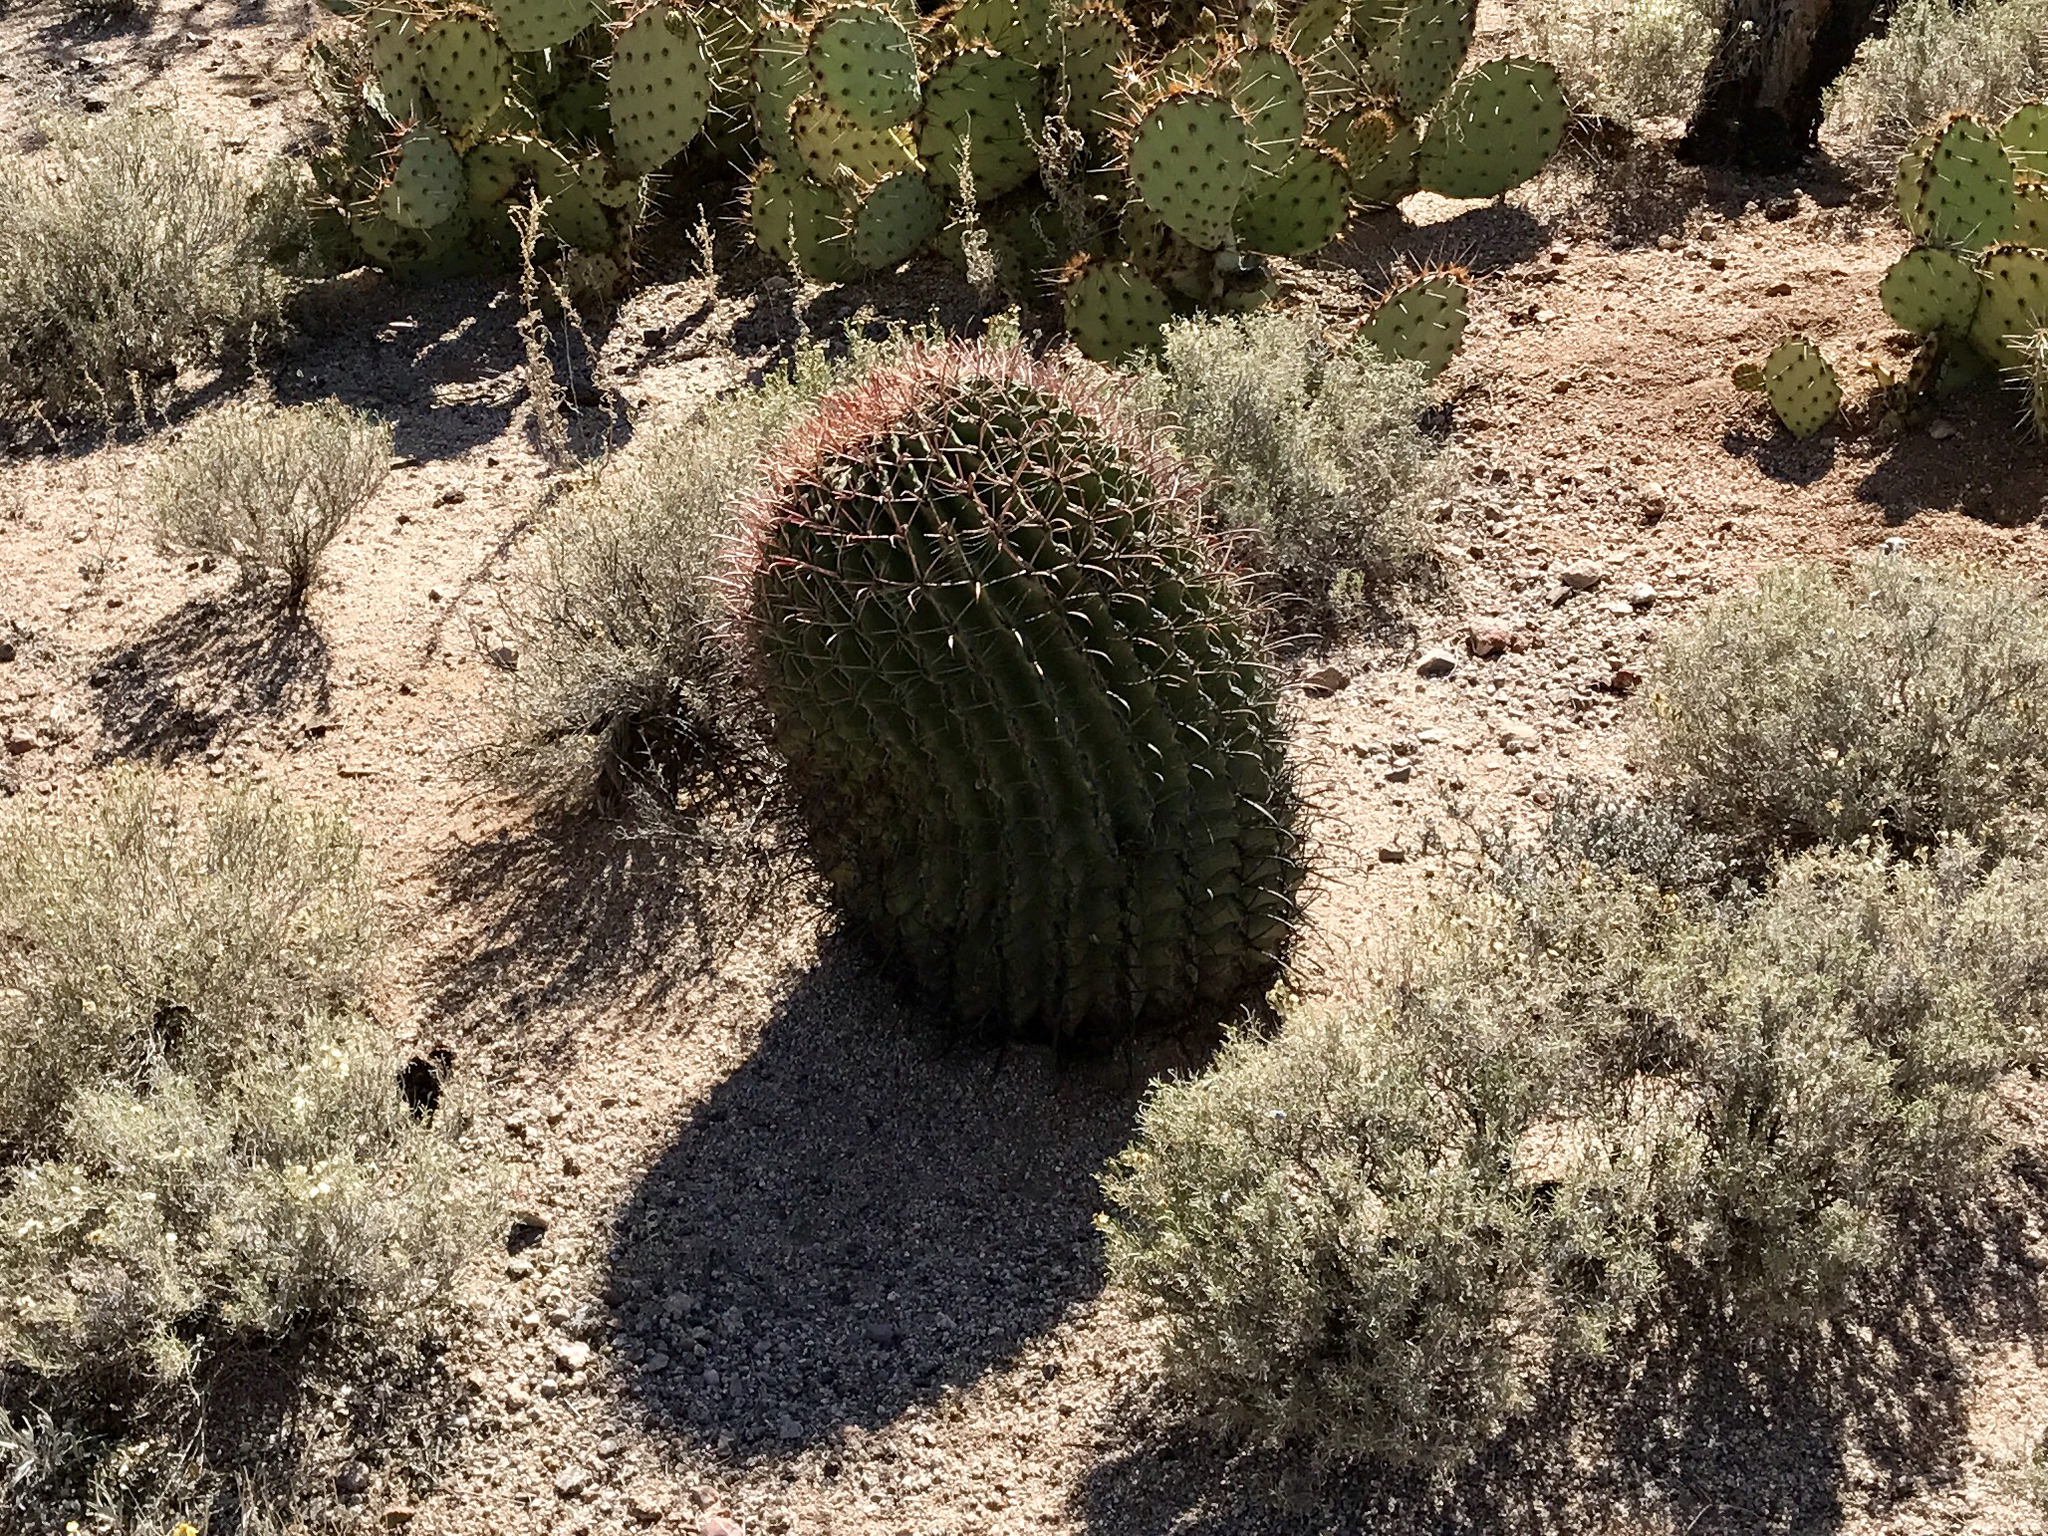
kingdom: Plantae
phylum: Tracheophyta
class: Magnoliopsida
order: Caryophyllales
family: Cactaceae
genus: Ferocactus
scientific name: Ferocactus wislizeni
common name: Candy barrel cactus
